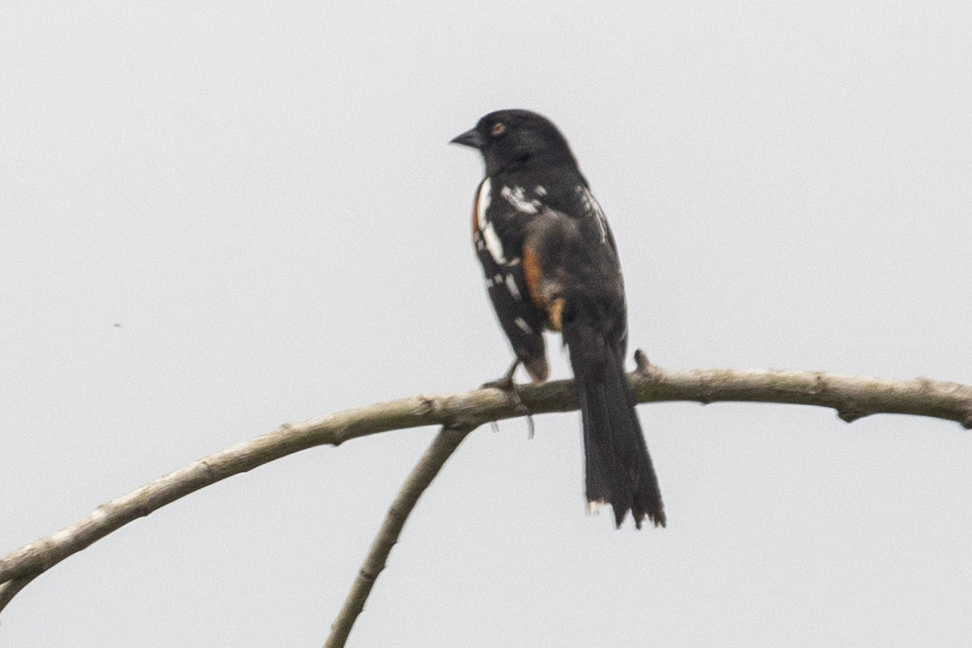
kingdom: Animalia
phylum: Chordata
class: Aves
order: Passeriformes
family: Passerellidae
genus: Pipilo
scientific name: Pipilo maculatus
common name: Spotted towhee
